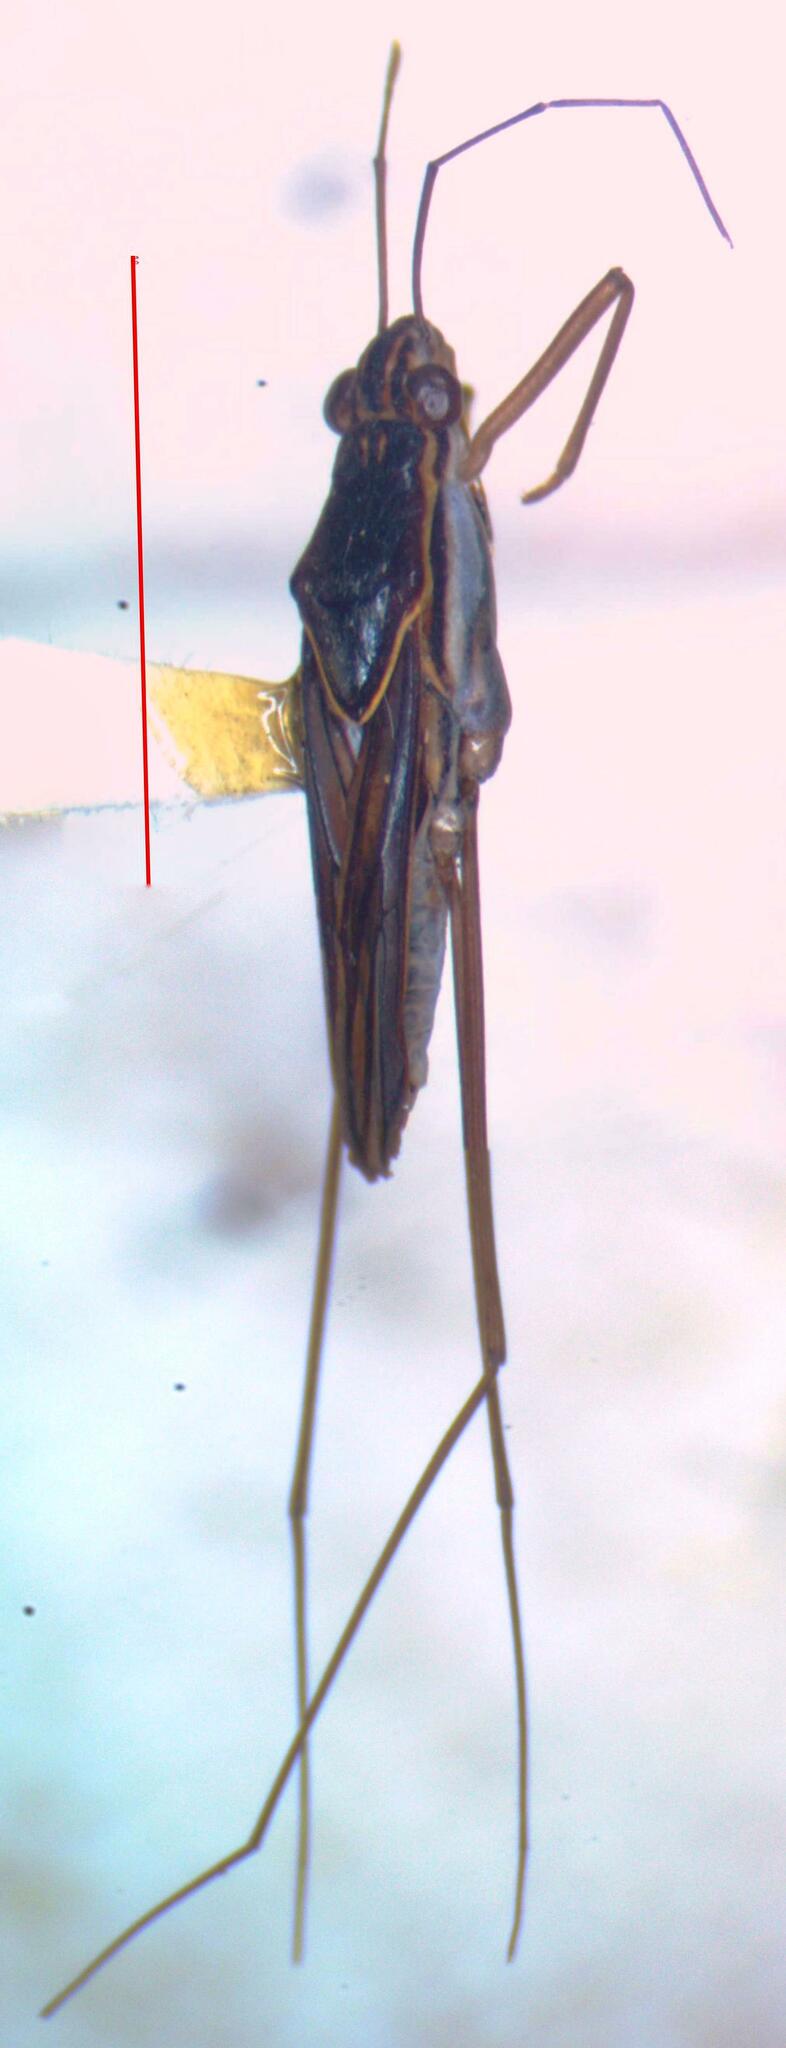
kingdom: Animalia
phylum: Arthropoda
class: Insecta
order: Hemiptera
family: Gerridae
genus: Limnogonus
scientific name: Limnogonus
